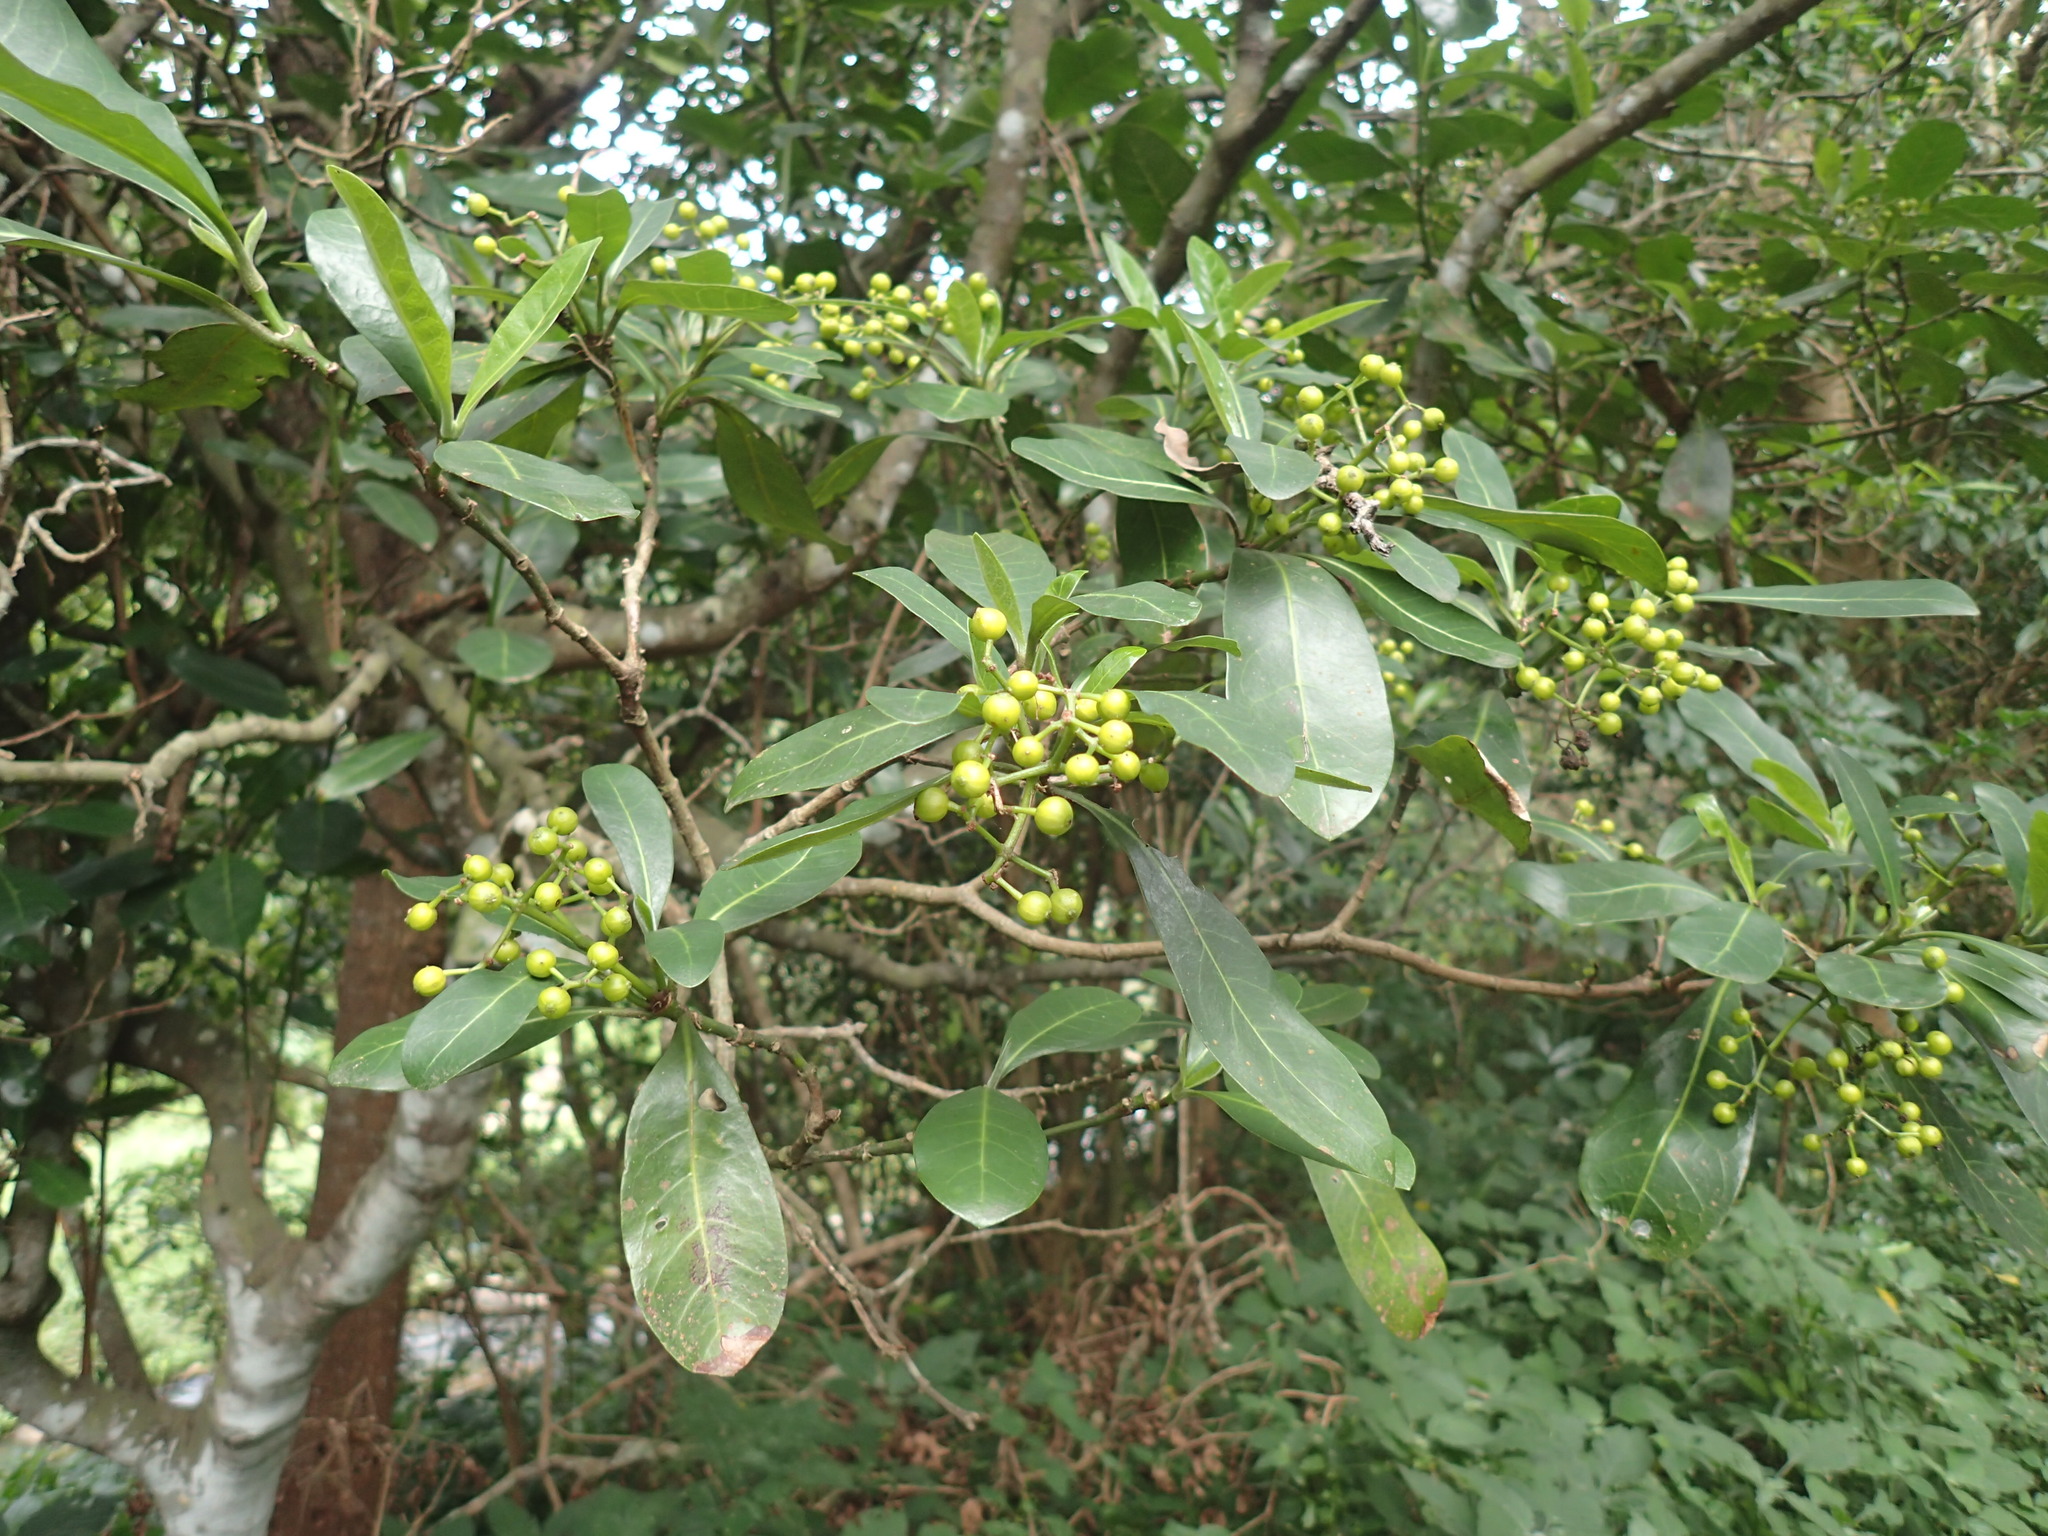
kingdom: Plantae
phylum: Tracheophyta
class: Magnoliopsida
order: Gentianales
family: Rubiaceae
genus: Psychotria
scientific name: Psychotria capensis
